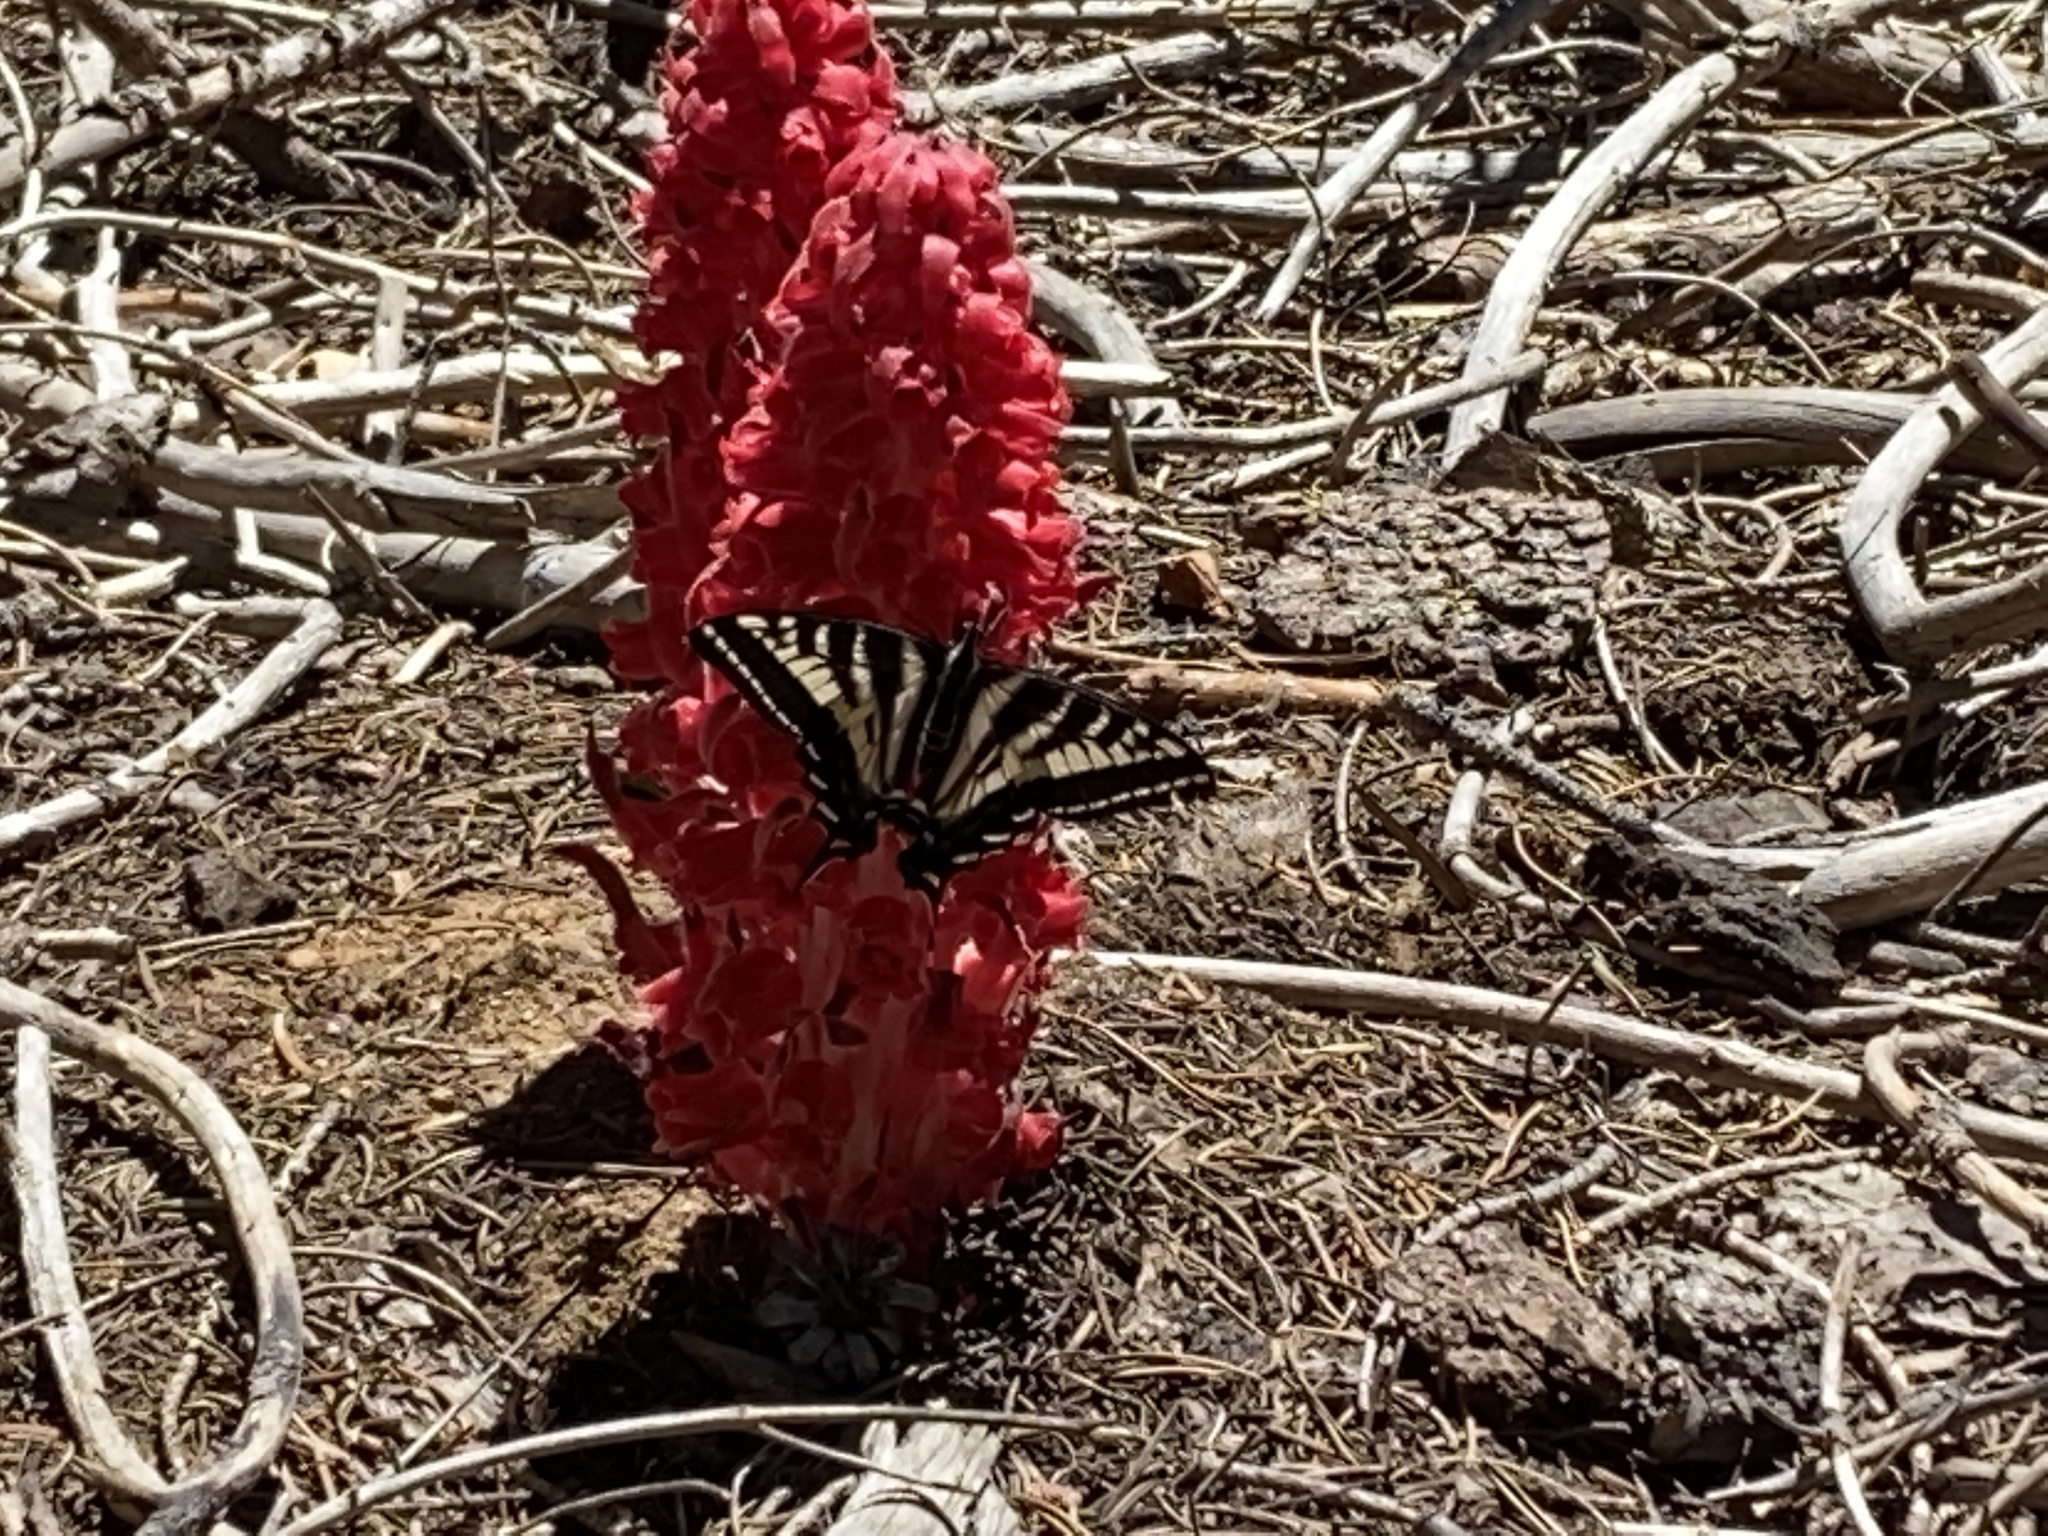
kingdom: Animalia
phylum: Arthropoda
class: Insecta
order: Lepidoptera
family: Papilionidae
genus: Papilio
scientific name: Papilio eurymedon
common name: Pale tiger swallowtail
